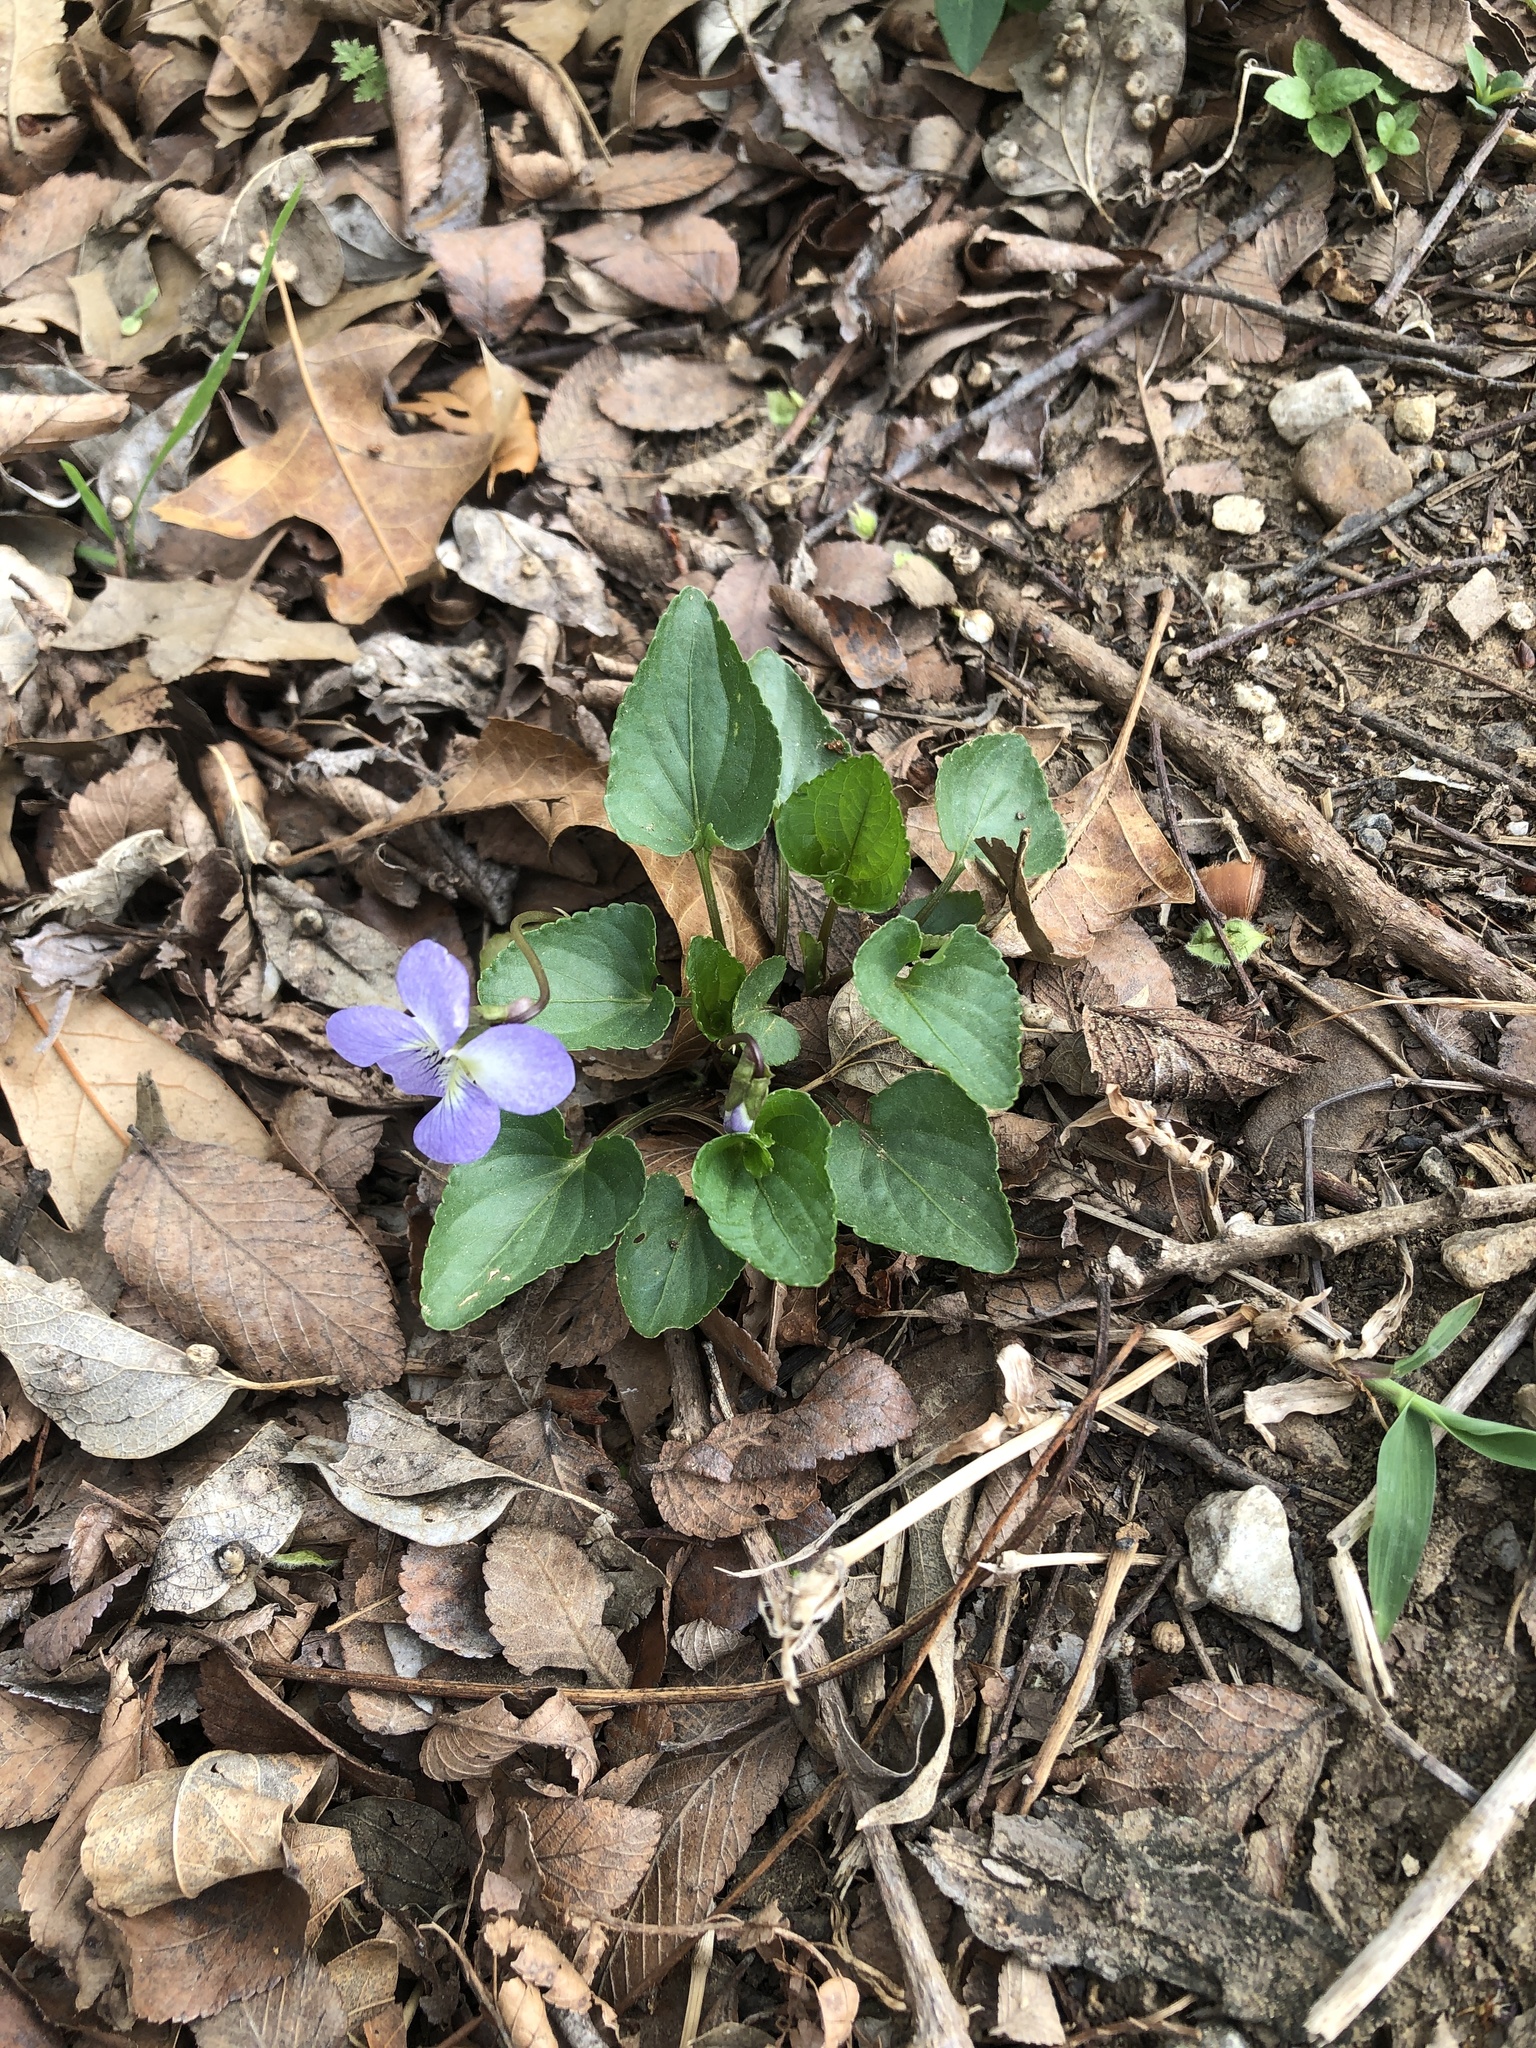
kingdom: Plantae
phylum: Tracheophyta
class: Magnoliopsida
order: Malpighiales
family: Violaceae
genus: Viola
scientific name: Viola missouriensis
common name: Missouri violet
